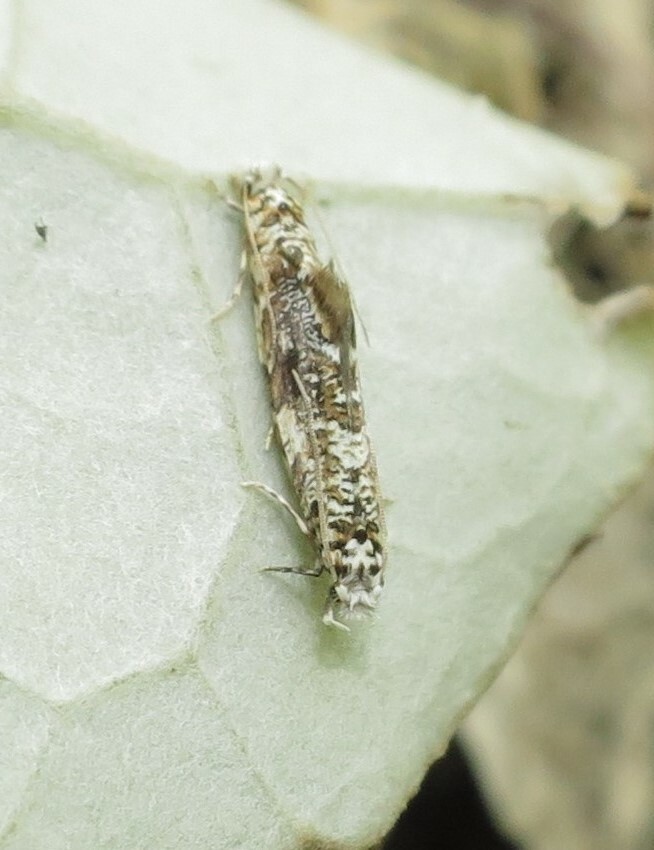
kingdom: Animalia
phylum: Arthropoda
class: Insecta
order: Lepidoptera
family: Tineidae
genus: Eschatotypa
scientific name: Eschatotypa derogatella
